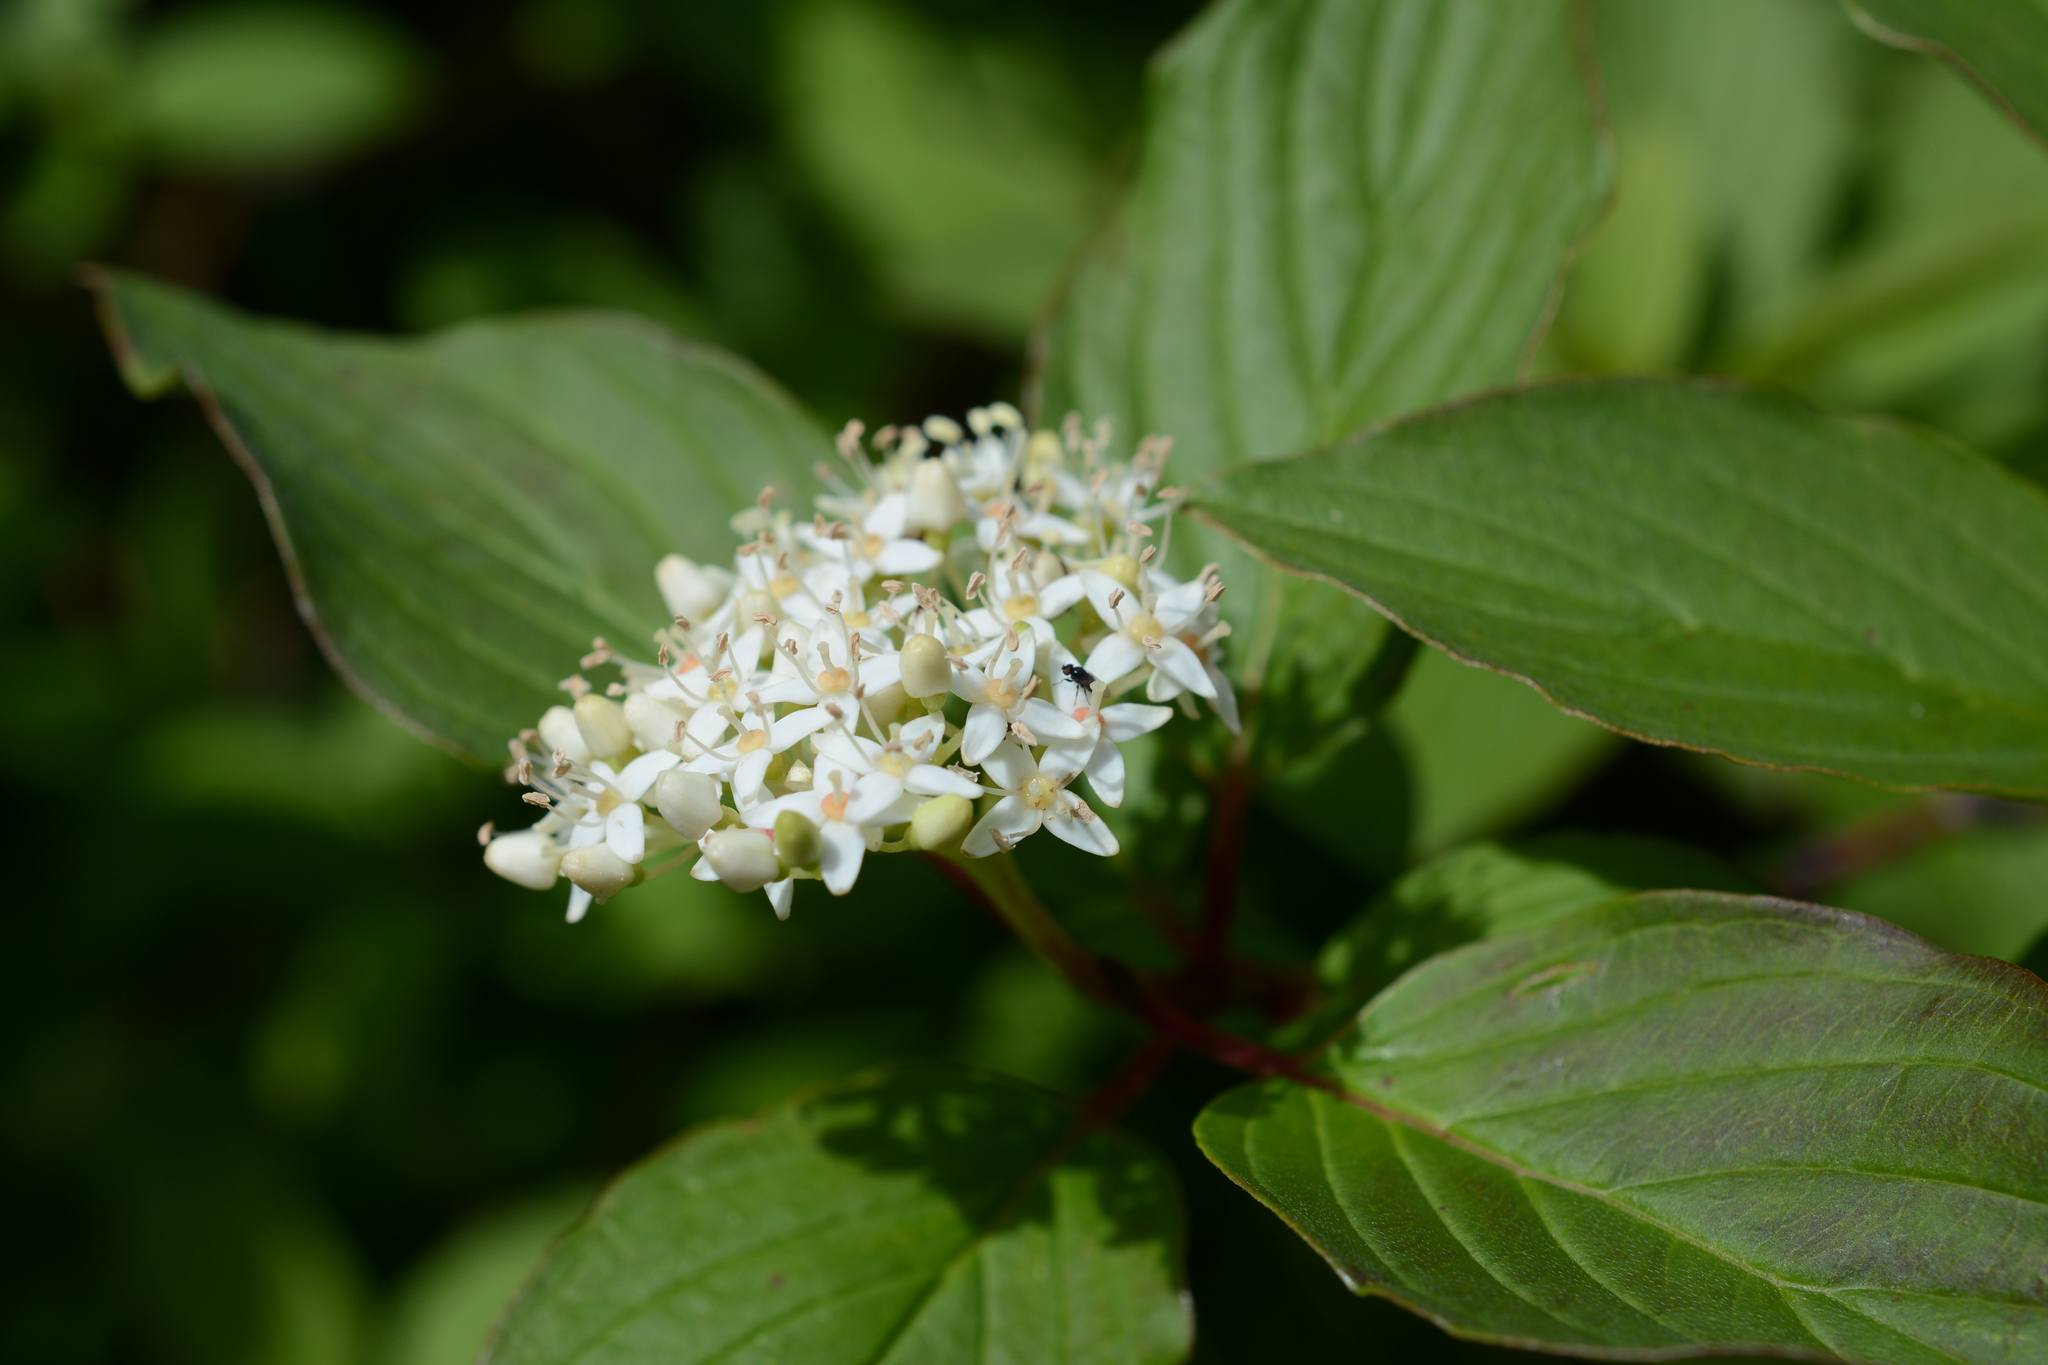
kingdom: Plantae
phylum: Tracheophyta
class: Magnoliopsida
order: Cornales
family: Cornaceae
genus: Cornus
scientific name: Cornus sericea
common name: Red-osier dogwood
